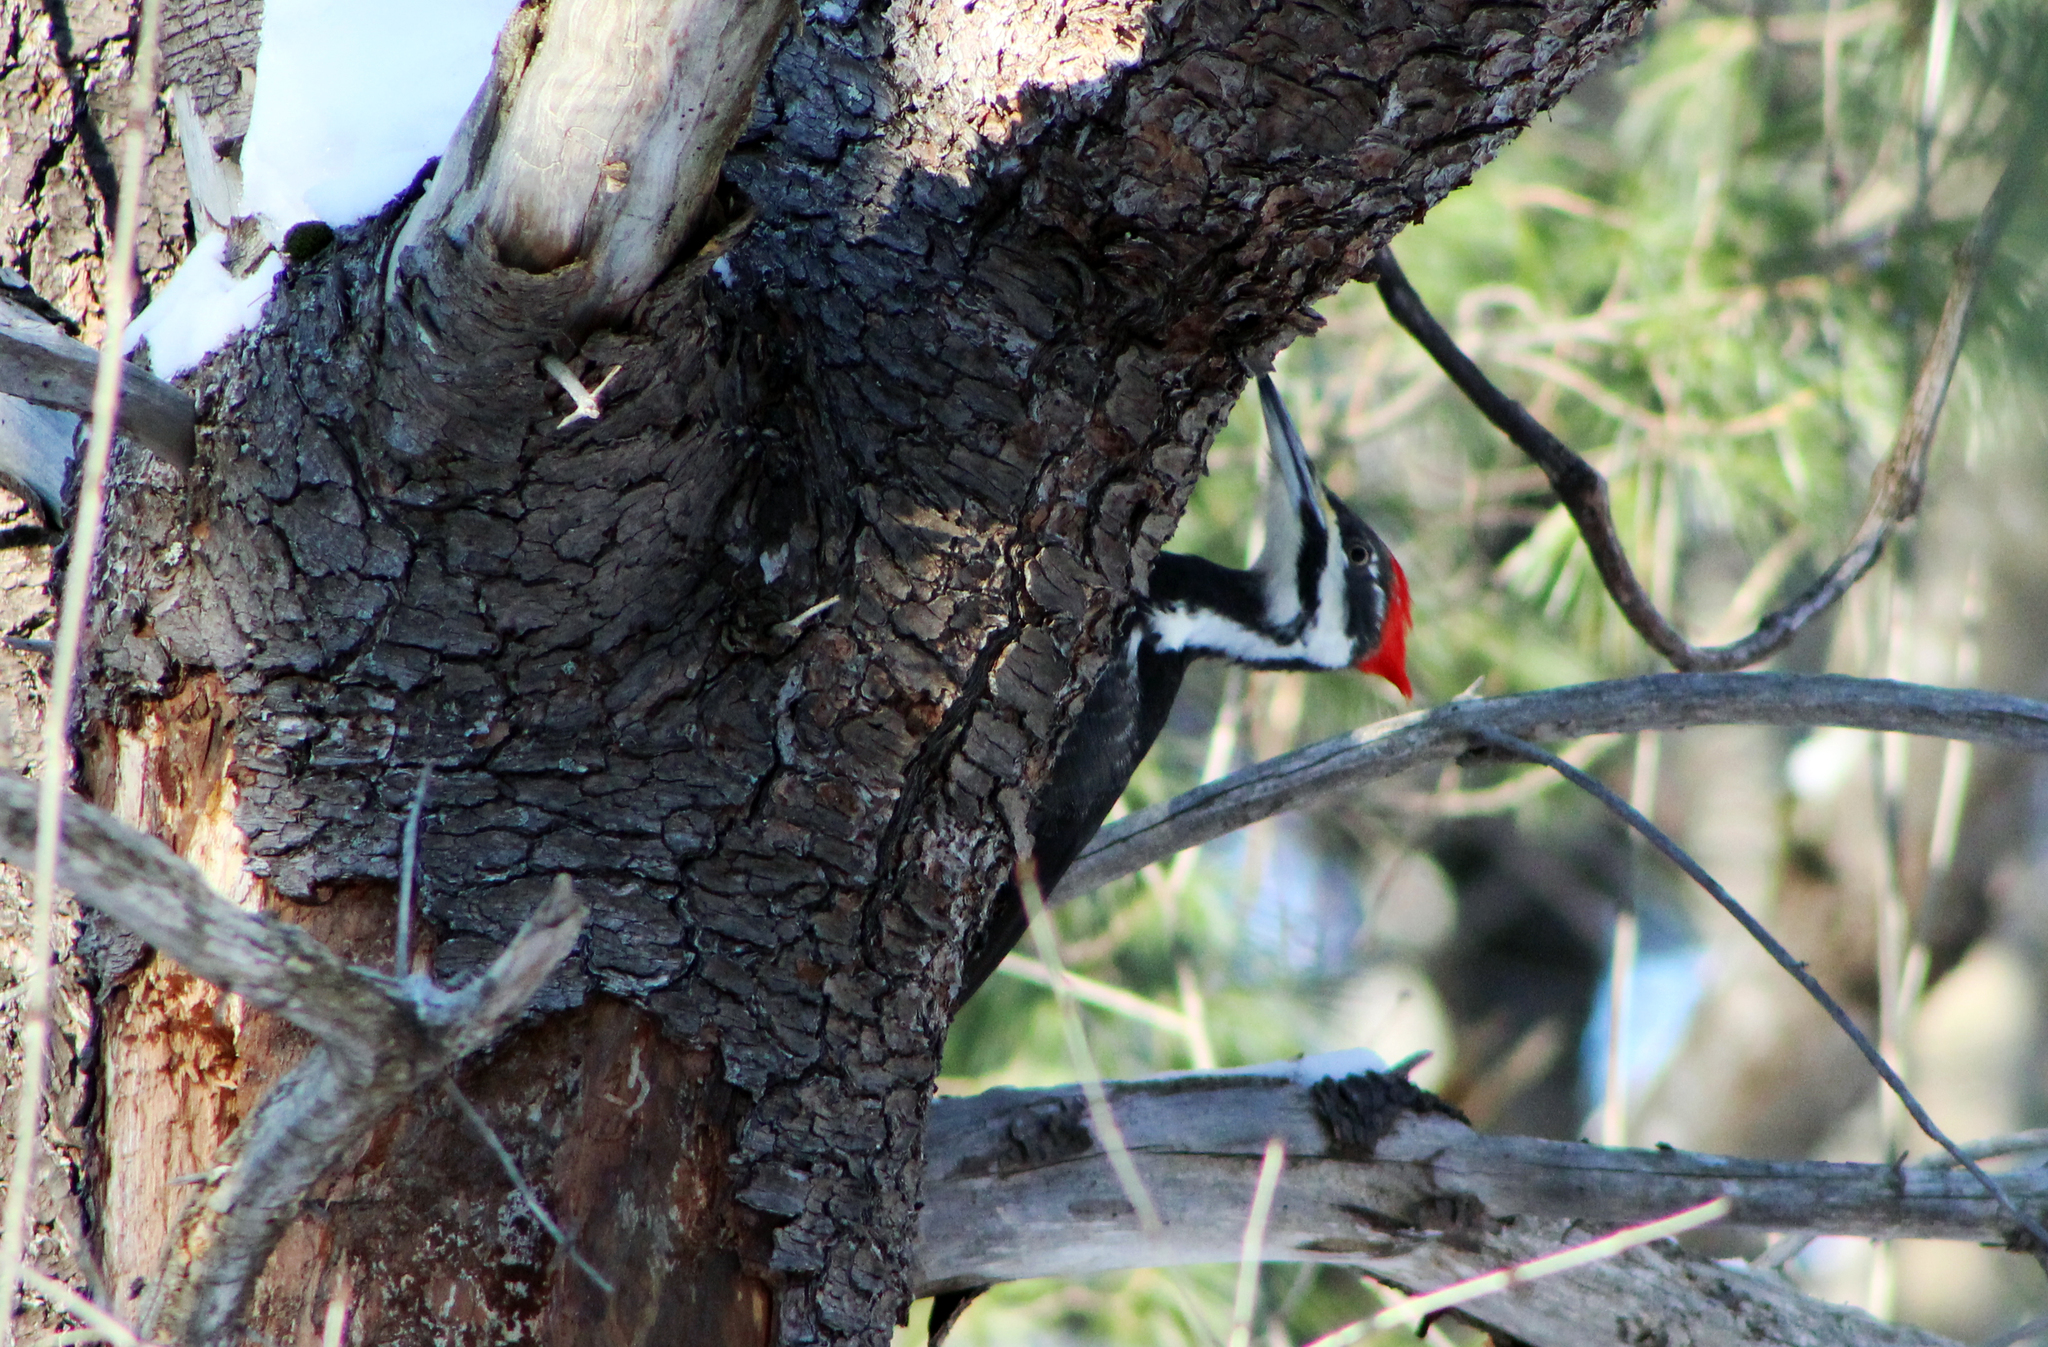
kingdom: Animalia
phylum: Chordata
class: Aves
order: Piciformes
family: Picidae
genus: Dryocopus
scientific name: Dryocopus pileatus
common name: Pileated woodpecker
